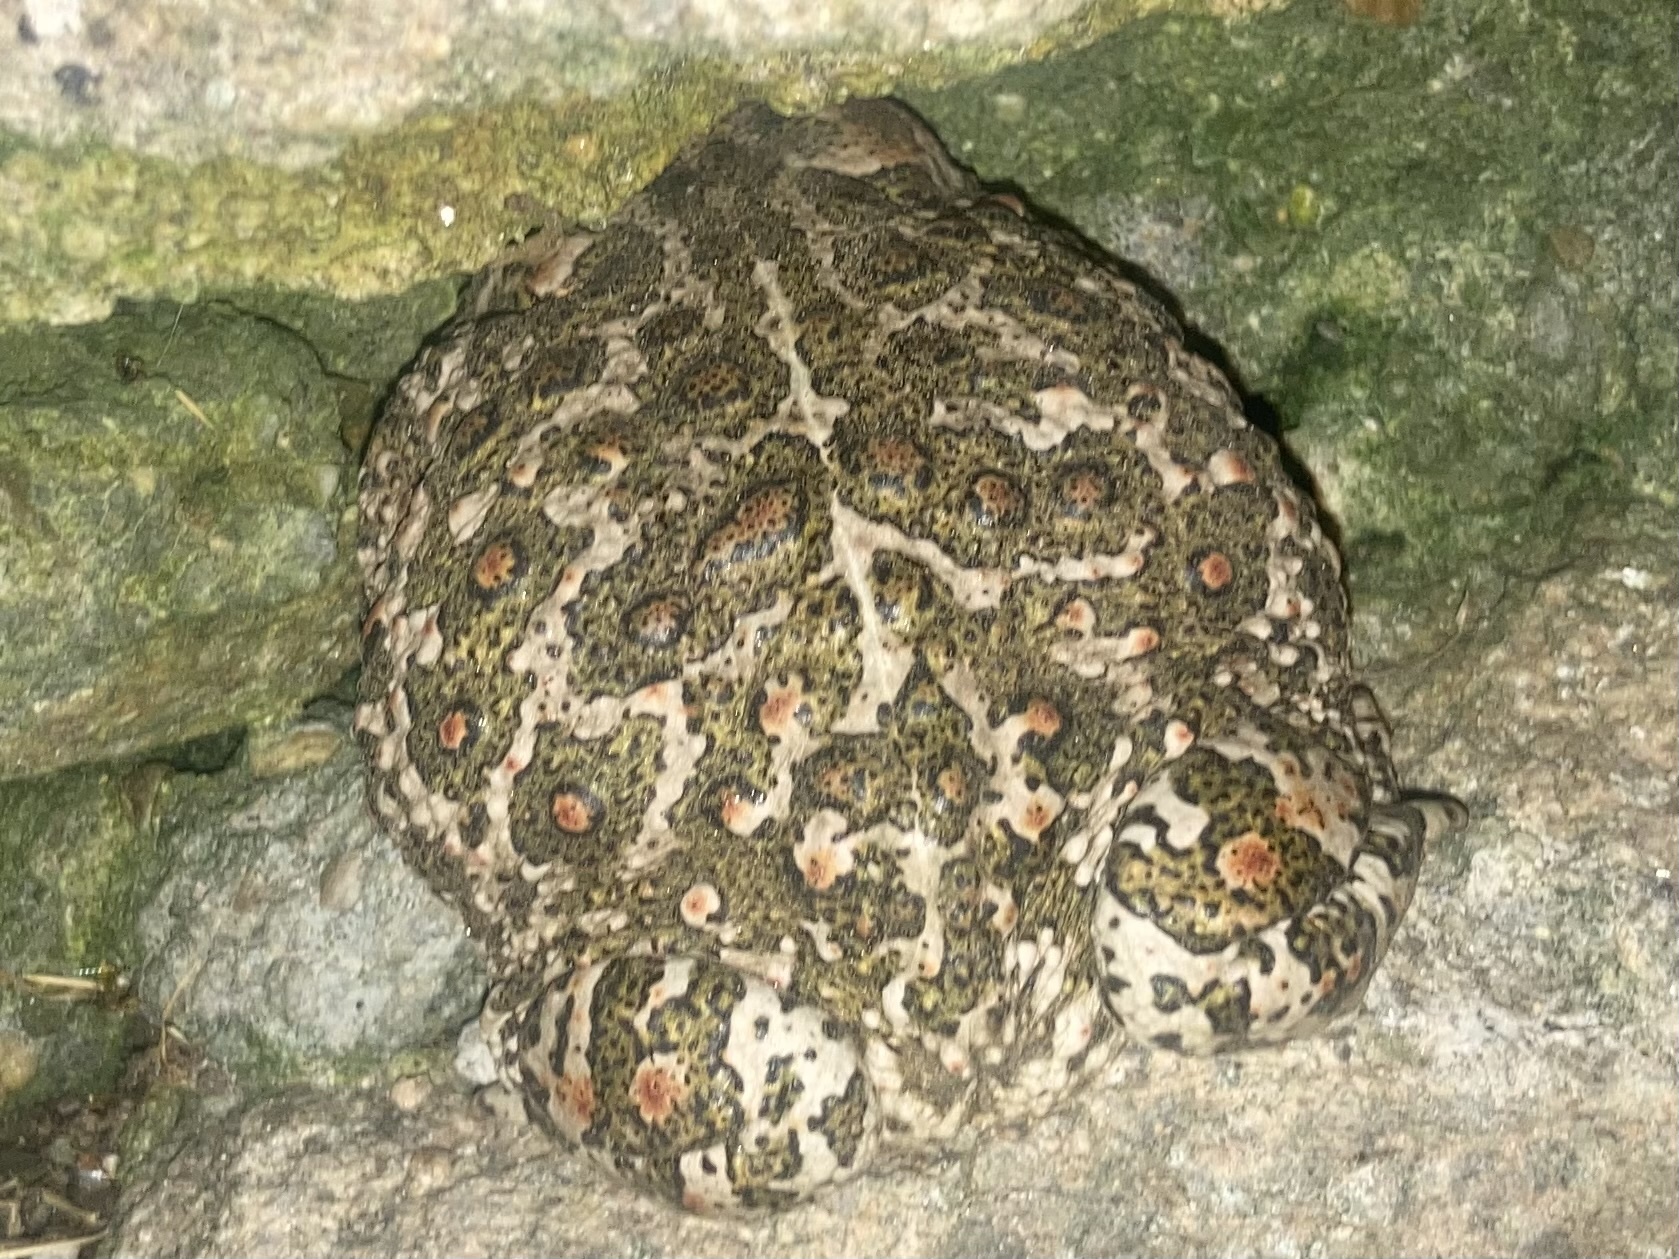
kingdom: Animalia
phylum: Chordata
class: Amphibia
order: Anura
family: Bufonidae
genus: Epidalea
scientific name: Epidalea calamita
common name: Natterjack toad
